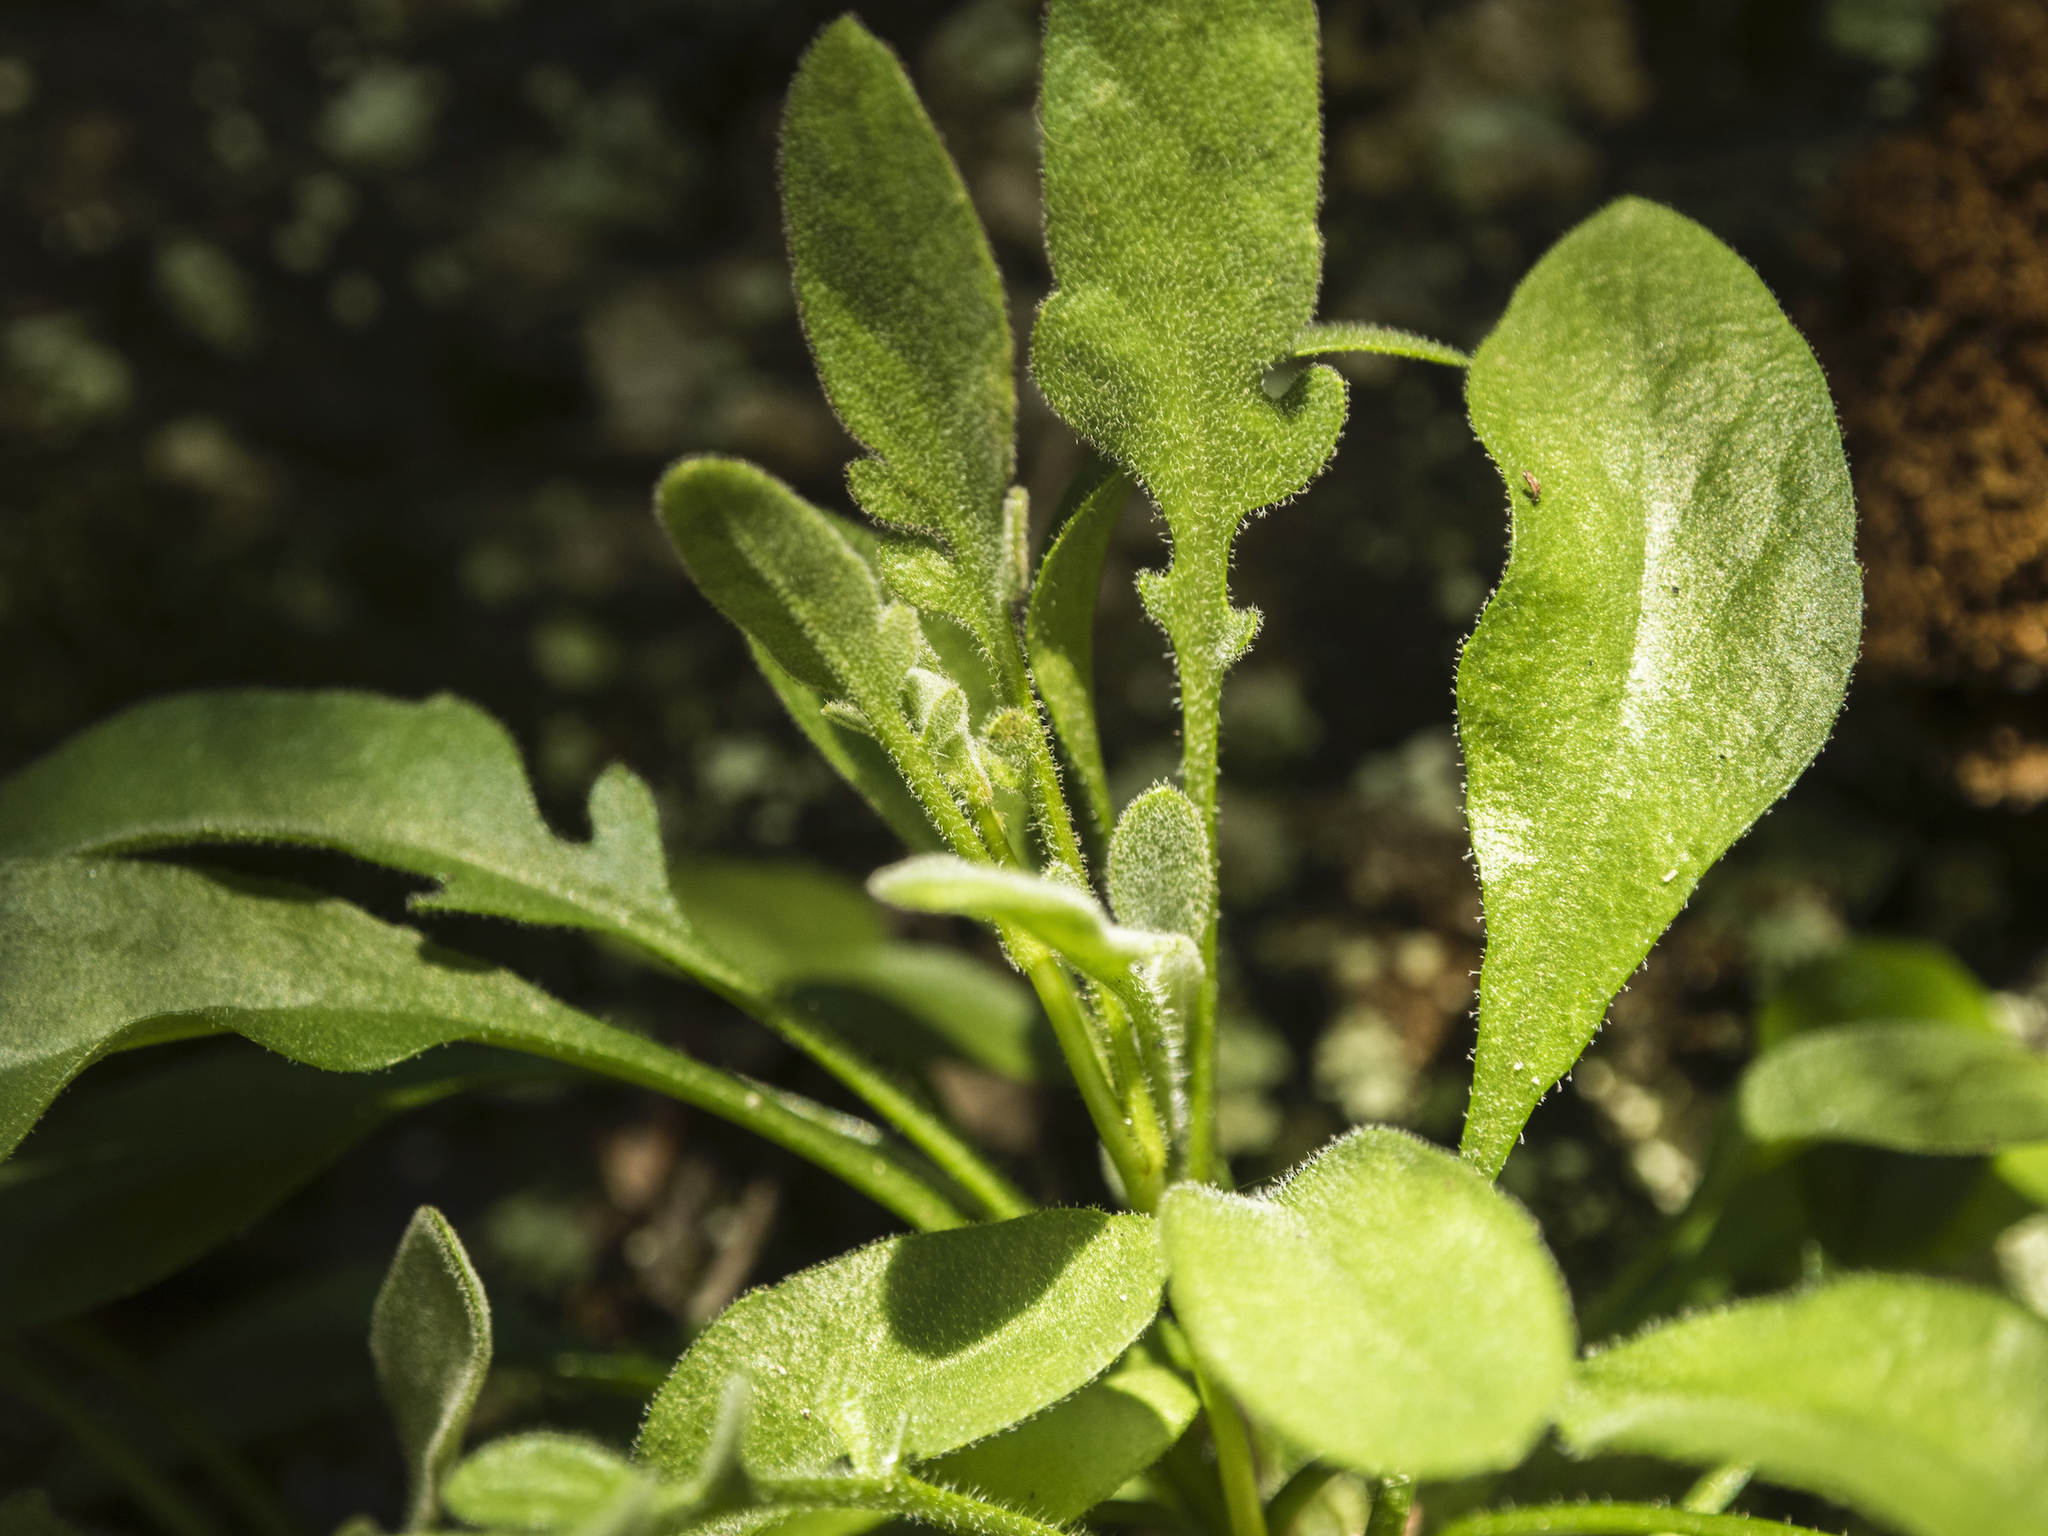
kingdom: Plantae
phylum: Tracheophyta
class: Magnoliopsida
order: Brassicales
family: Brassicaceae
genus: Pachycladon
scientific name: Pachycladon cheesemanii
